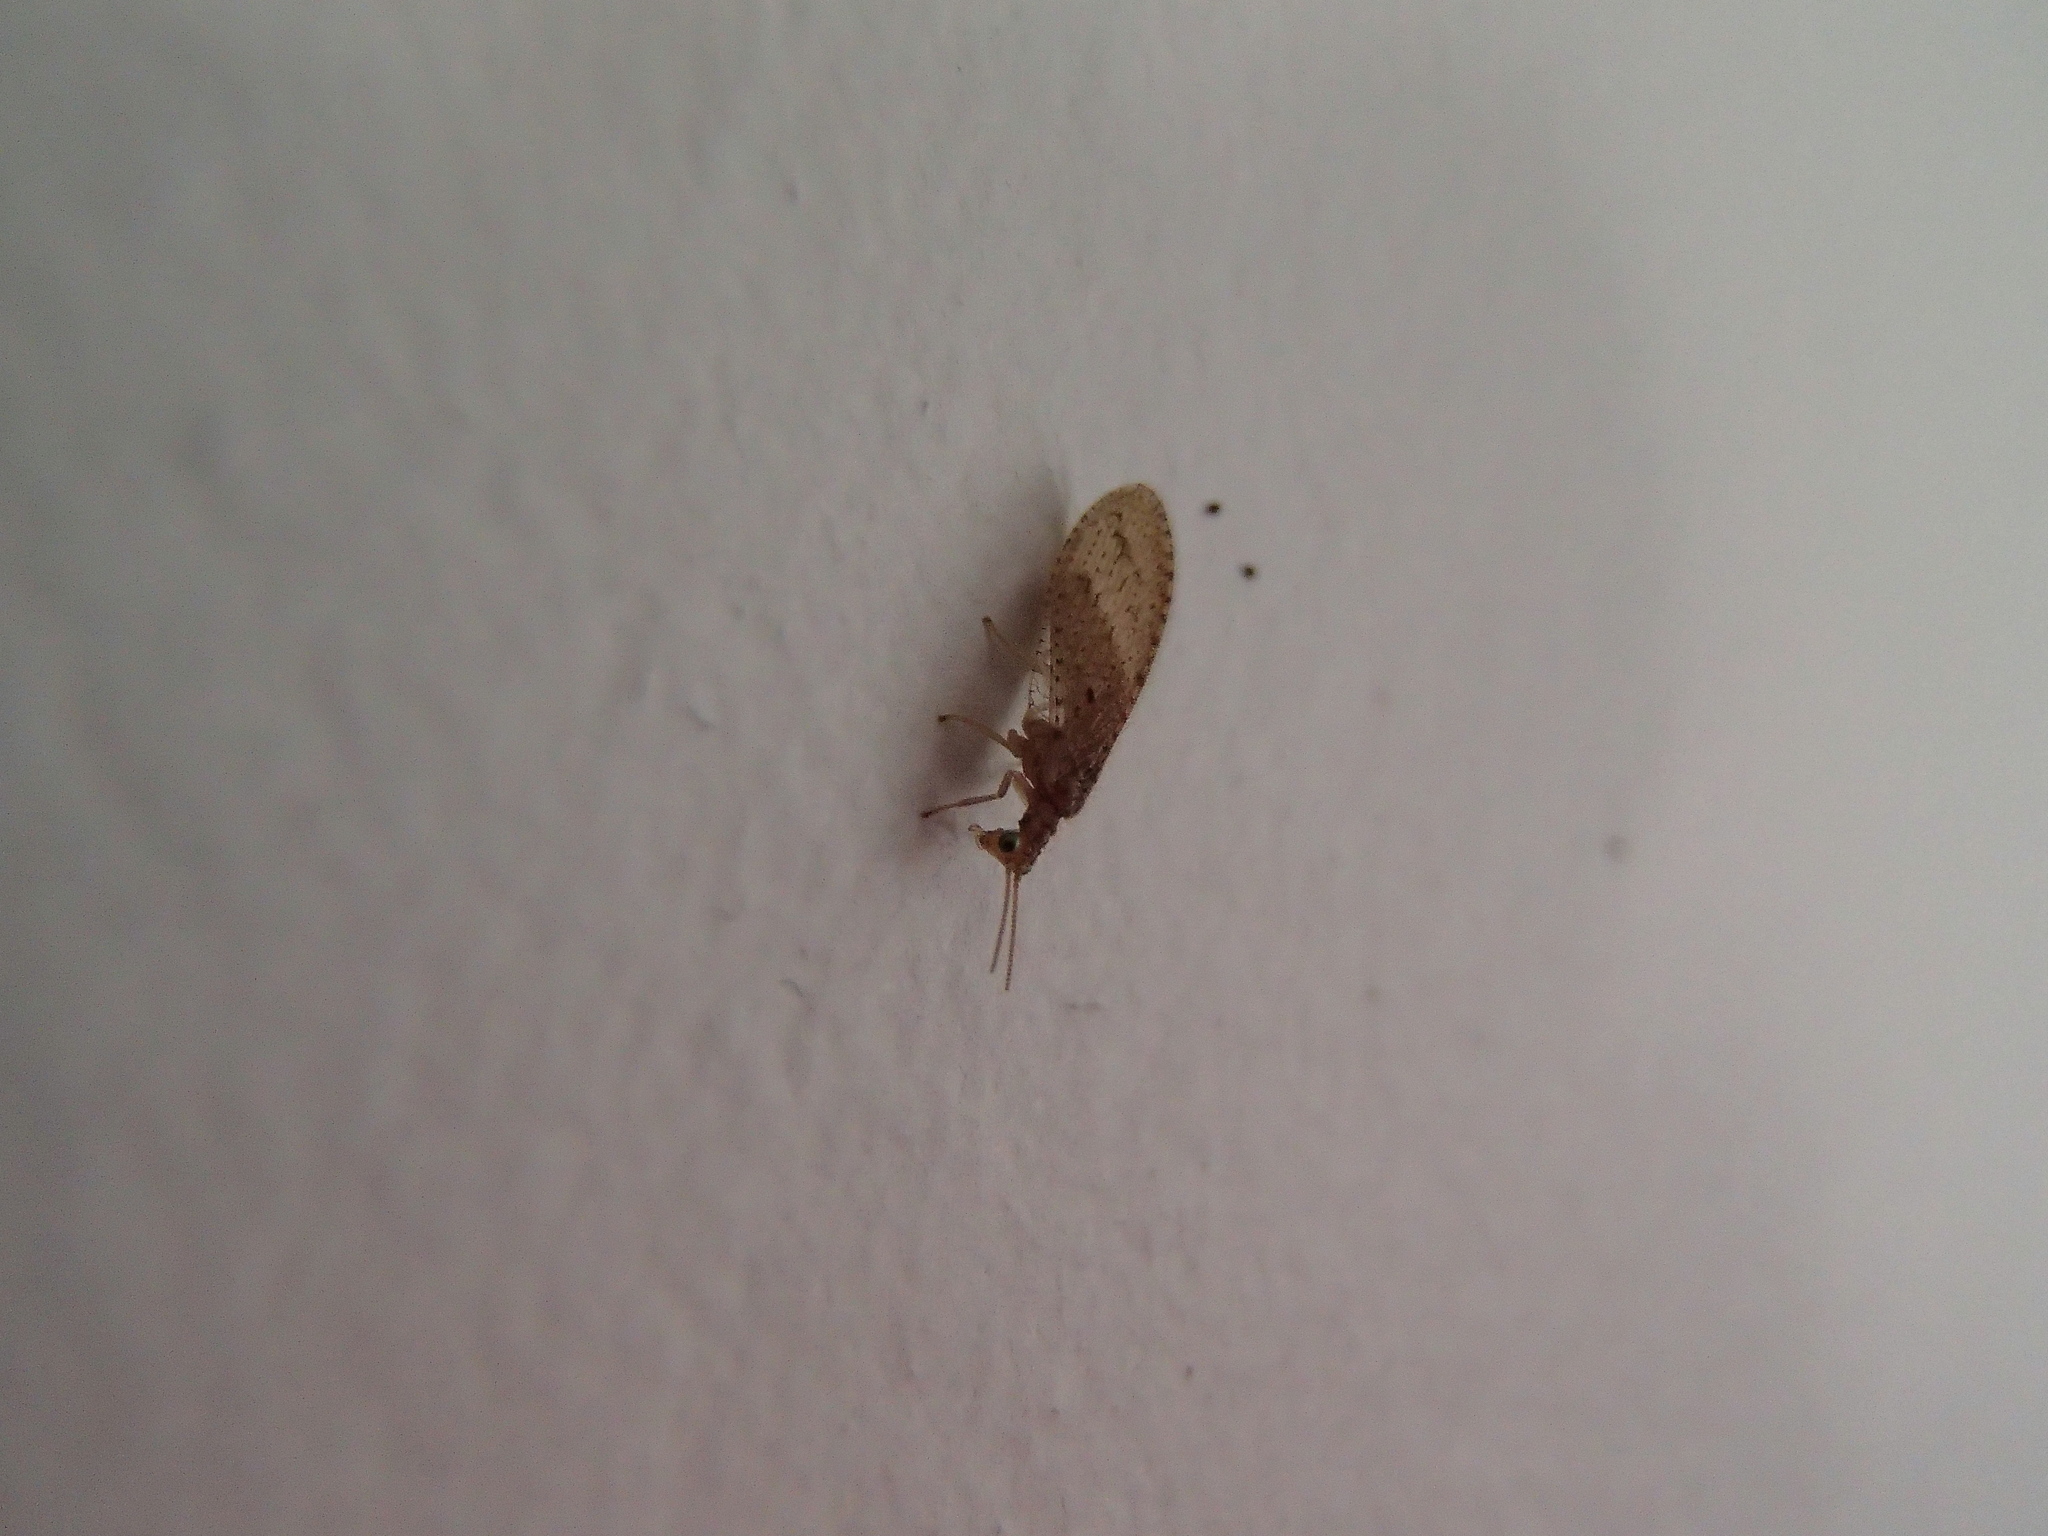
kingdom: Animalia
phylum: Arthropoda
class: Insecta
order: Neuroptera
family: Hemerobiidae
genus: Micromus
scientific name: Micromus tasmaniae
